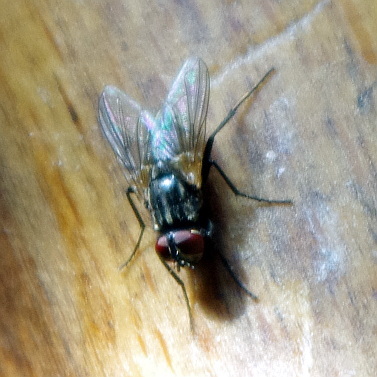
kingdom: Animalia
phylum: Arthropoda
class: Insecta
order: Diptera
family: Muscidae
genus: Musca
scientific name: Musca domestica
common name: House fly
